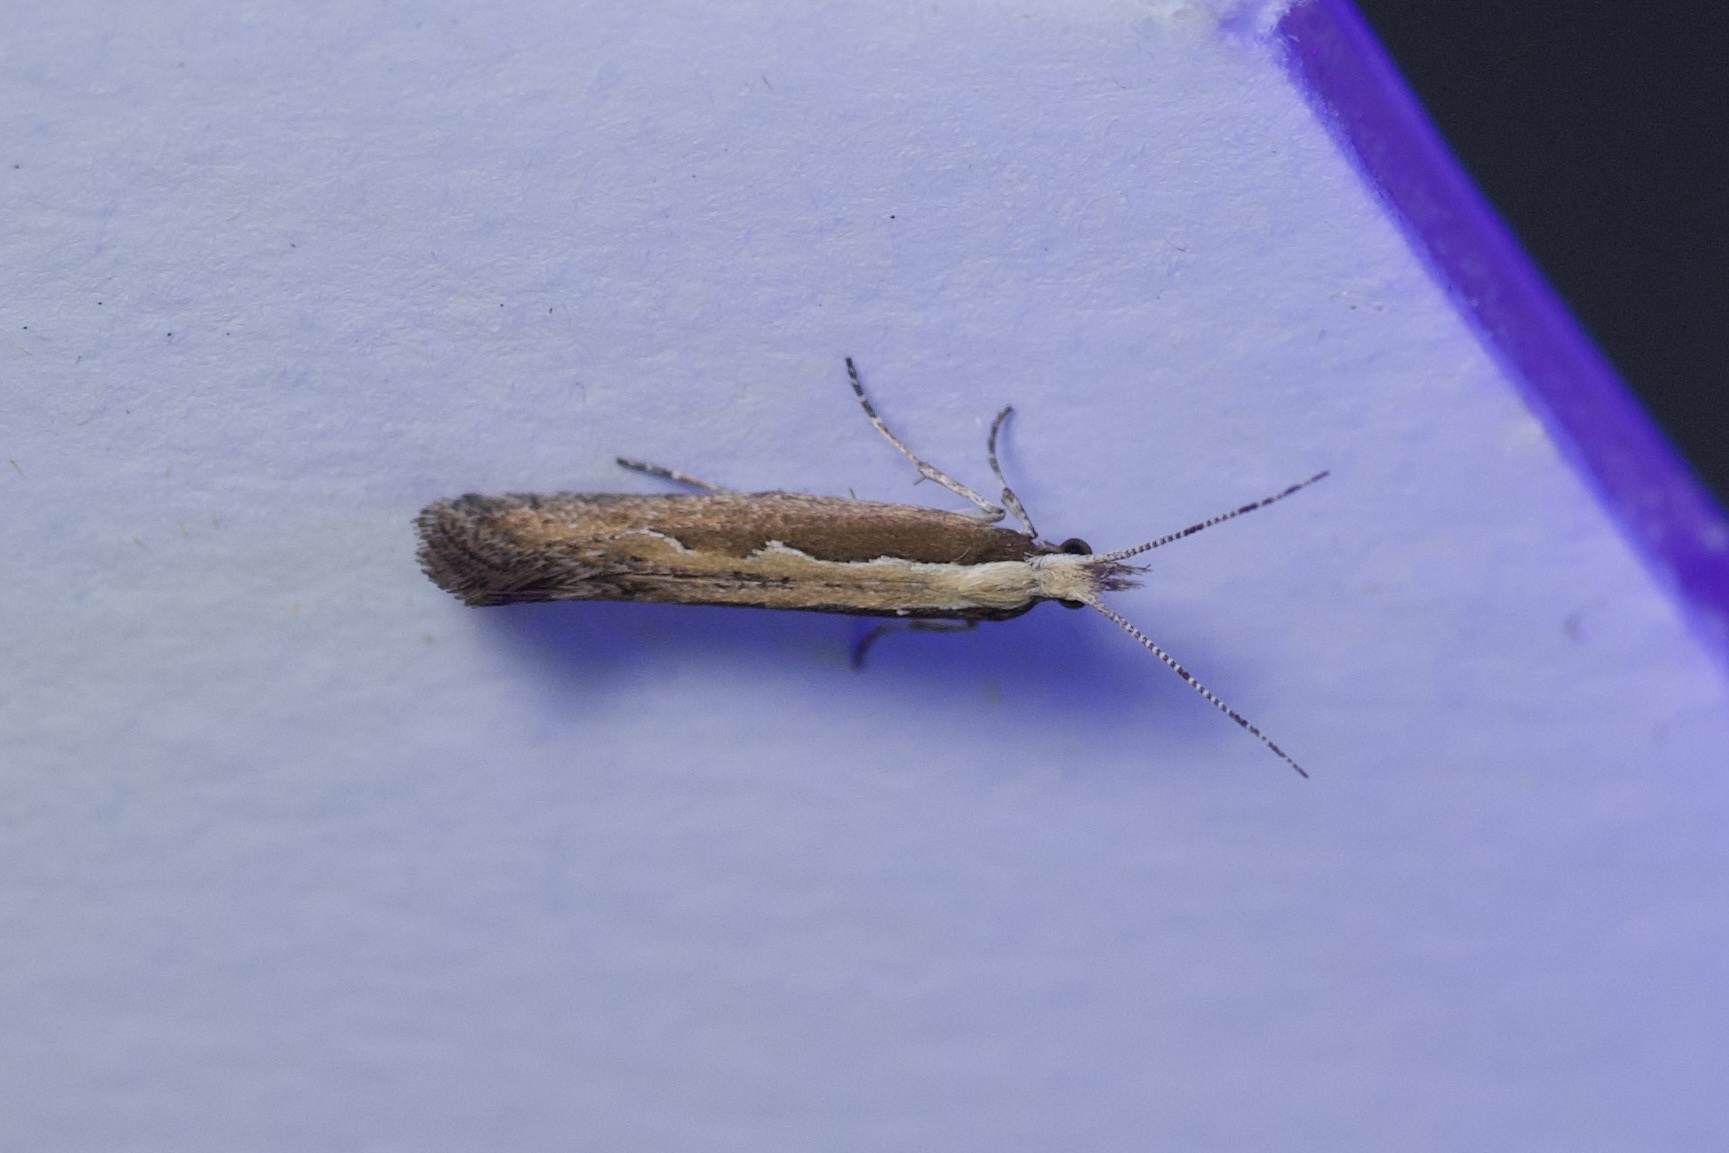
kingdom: Animalia
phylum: Arthropoda
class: Insecta
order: Lepidoptera
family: Plutellidae
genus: Plutella
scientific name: Plutella xylostella
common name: Diamond-back moth
